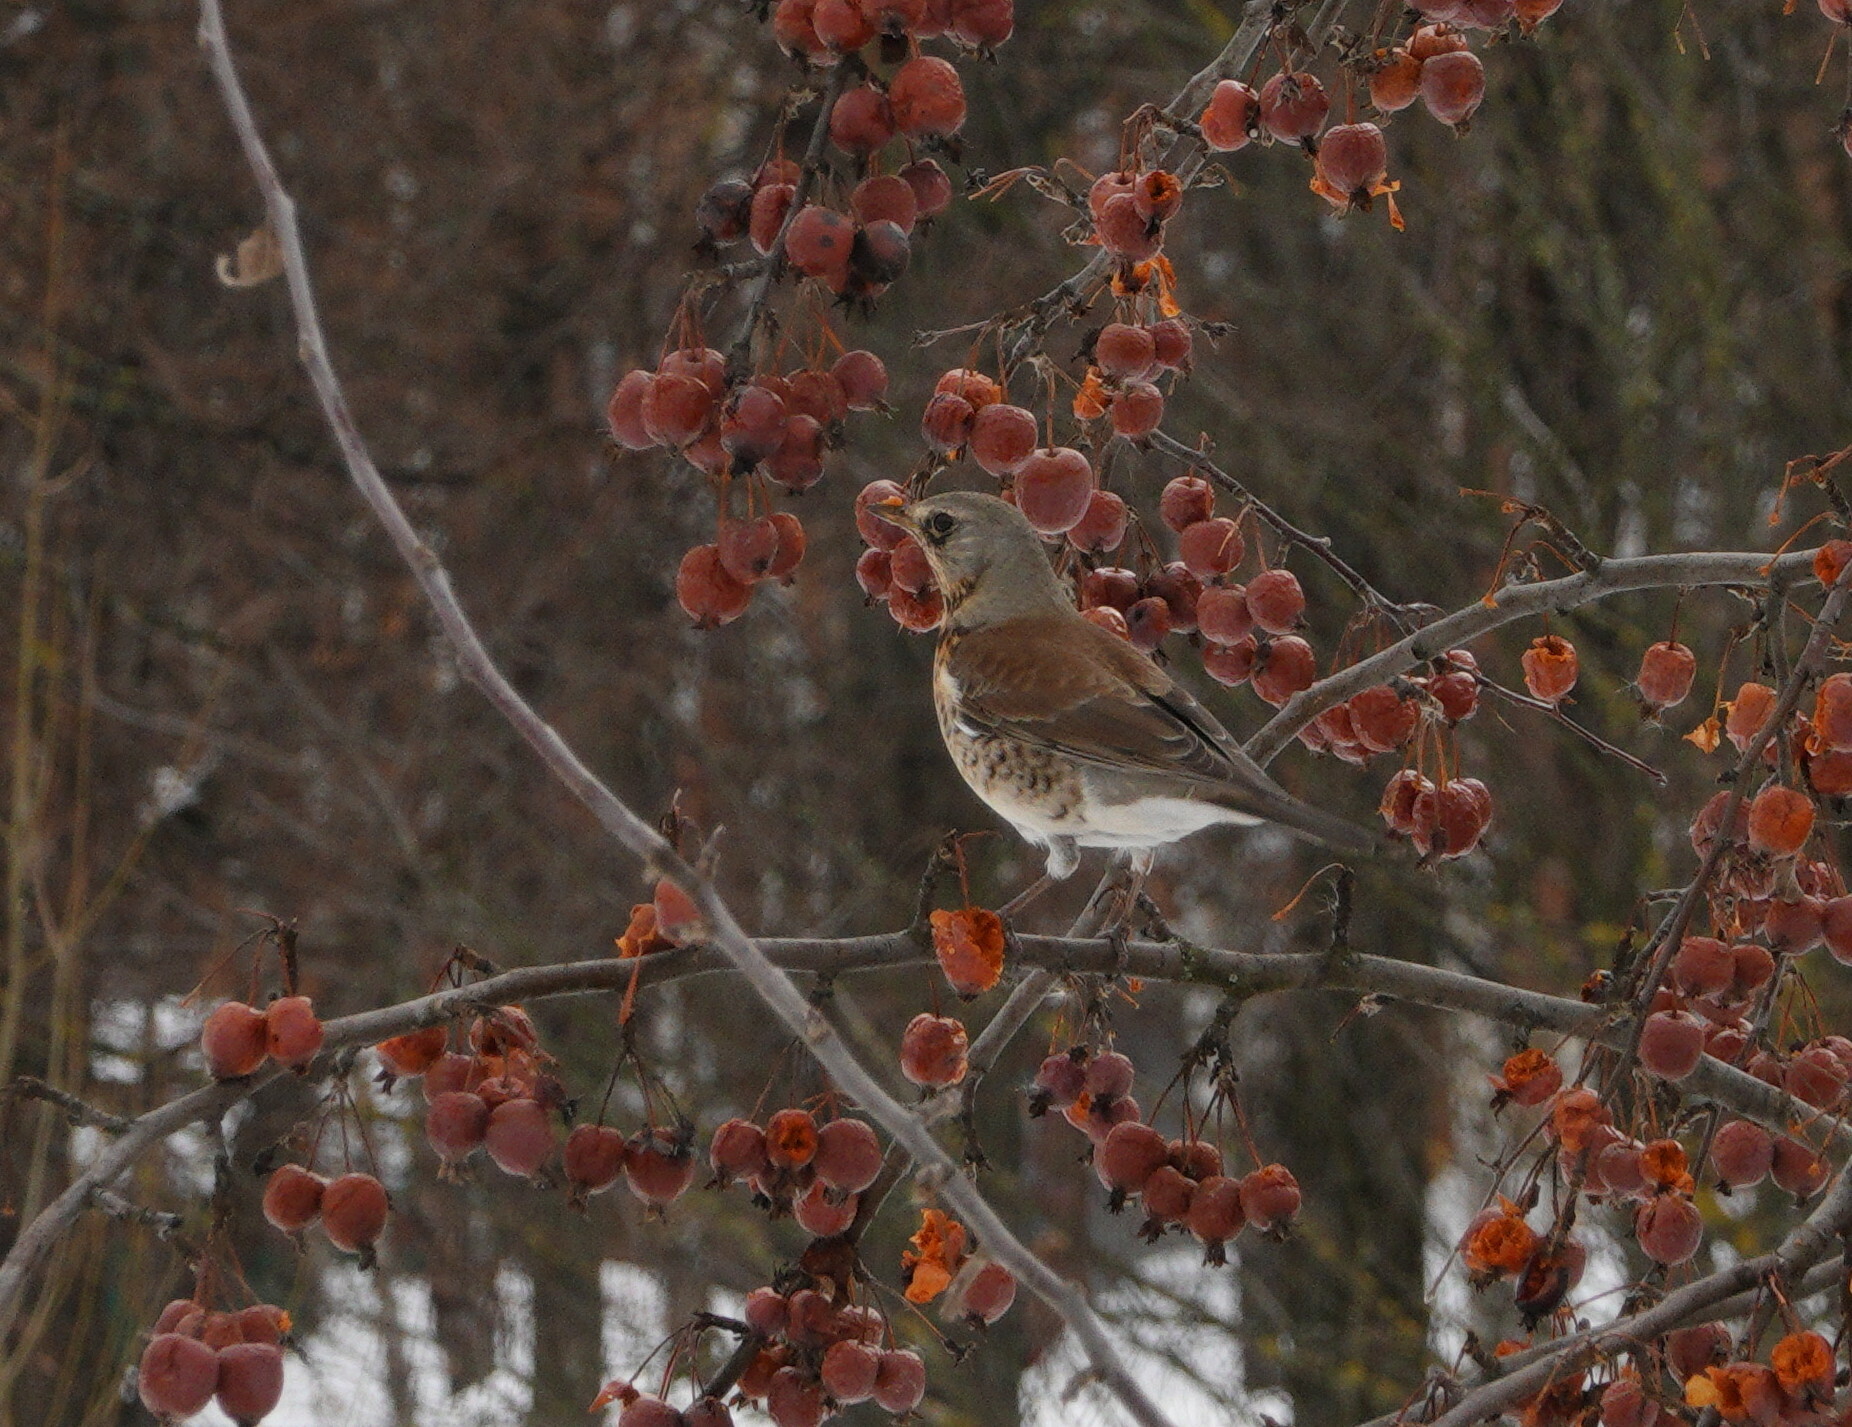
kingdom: Animalia
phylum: Chordata
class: Aves
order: Passeriformes
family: Turdidae
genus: Turdus
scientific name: Turdus pilaris
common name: Fieldfare
